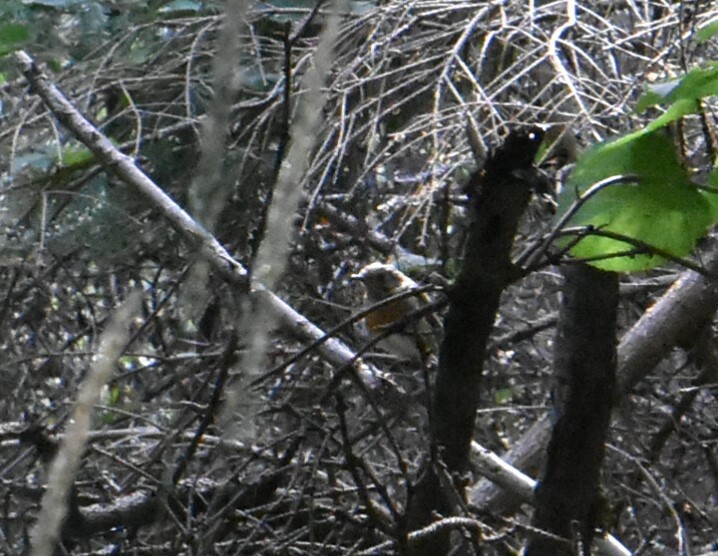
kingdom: Animalia
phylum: Chordata
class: Aves
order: Passeriformes
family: Muscicapidae
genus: Erithacus
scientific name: Erithacus rubecula
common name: European robin
